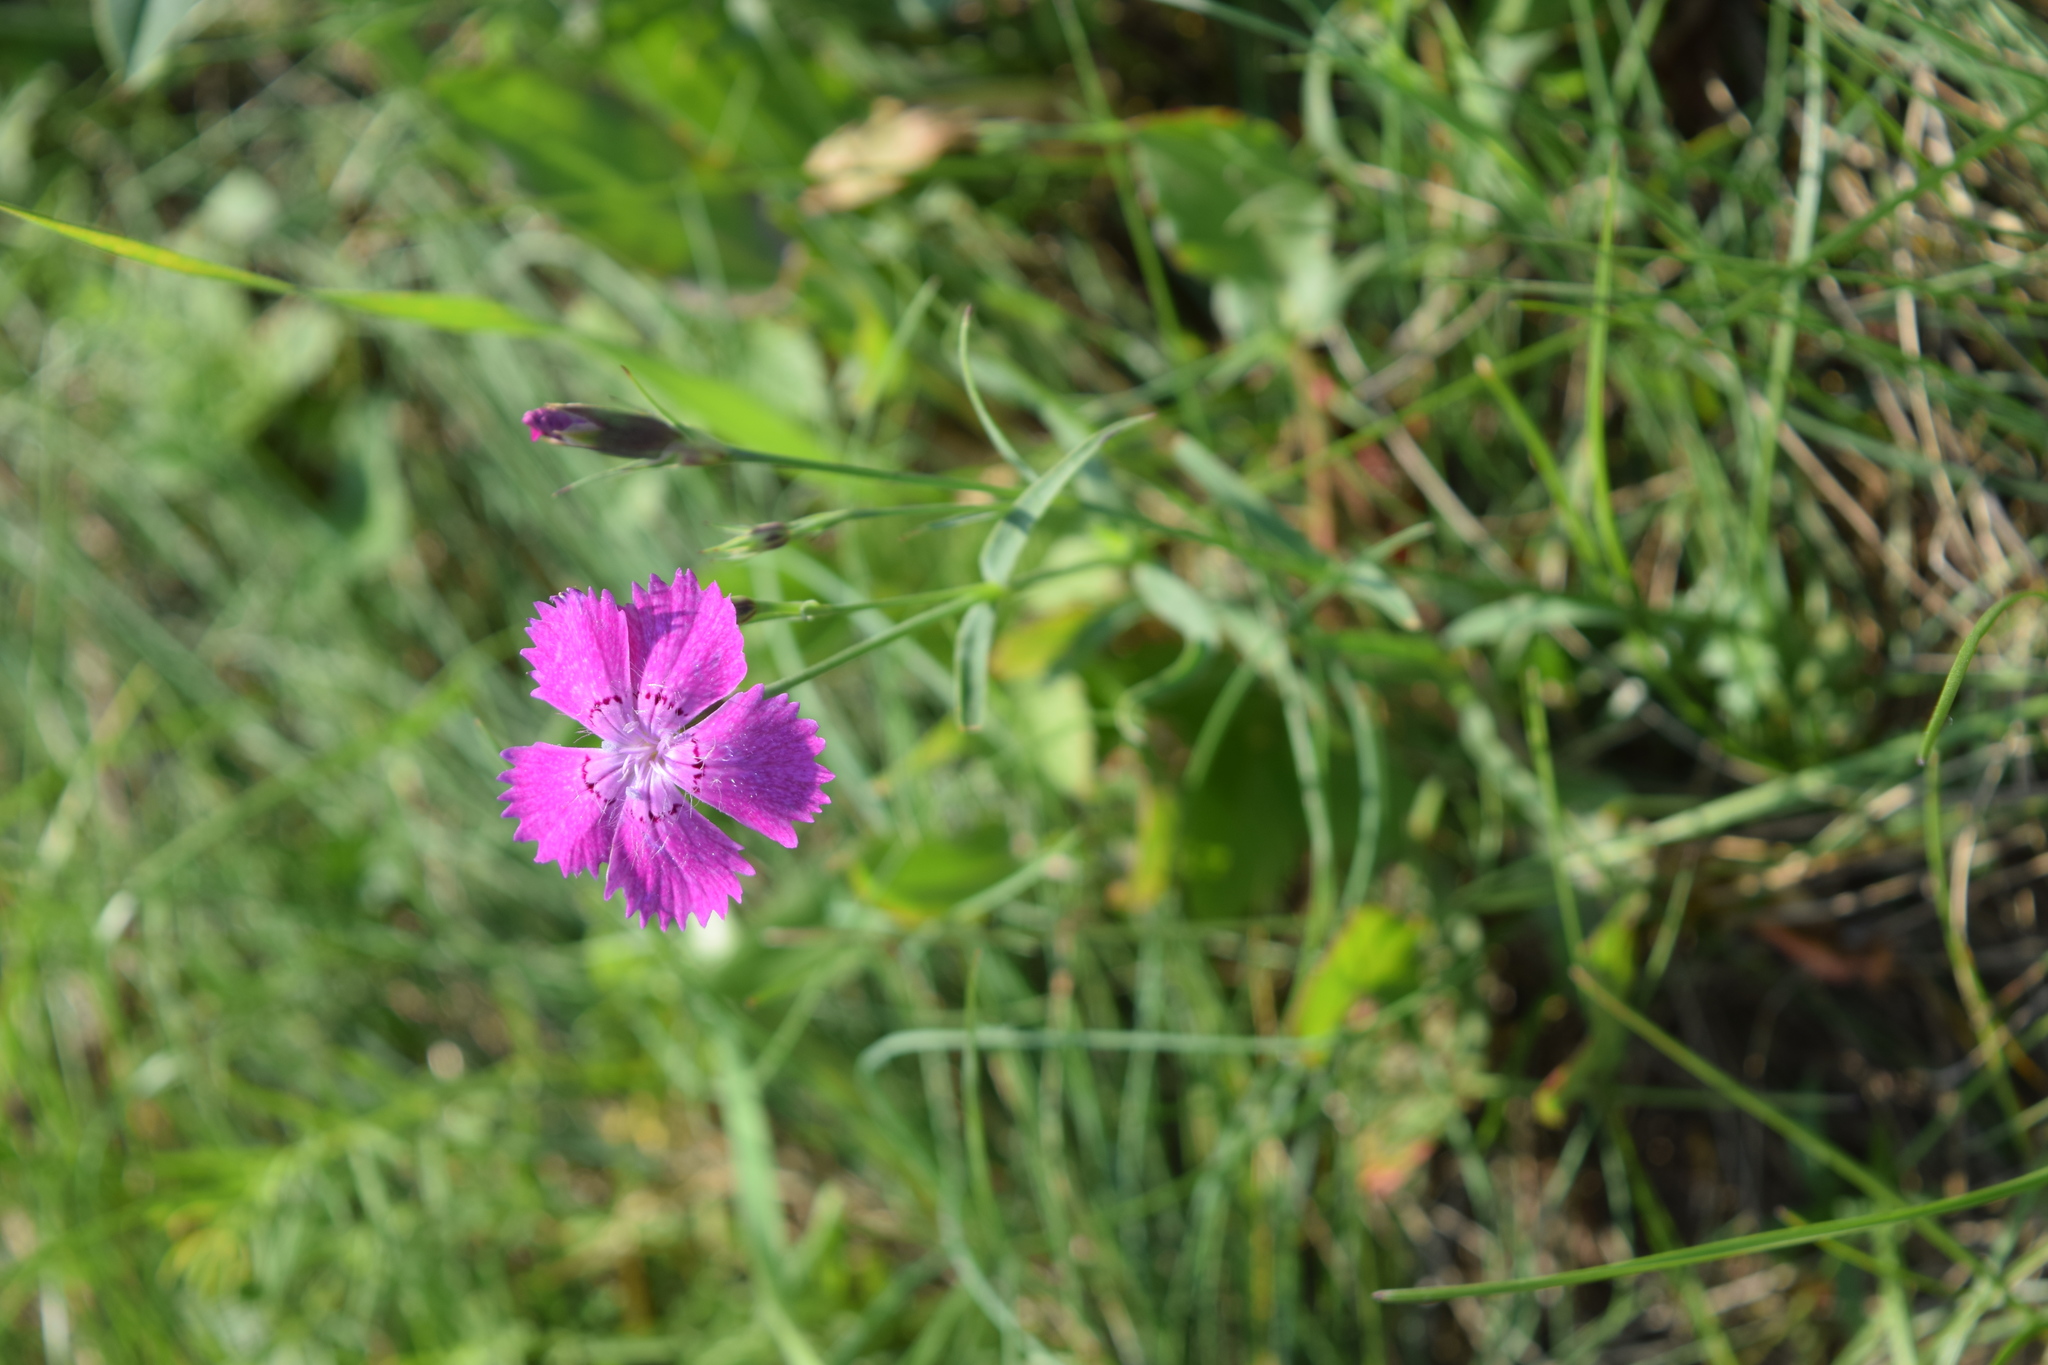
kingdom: Plantae
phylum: Tracheophyta
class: Magnoliopsida
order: Caryophyllales
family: Caryophyllaceae
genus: Dianthus
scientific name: Dianthus chinensis
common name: Rainbow pink
